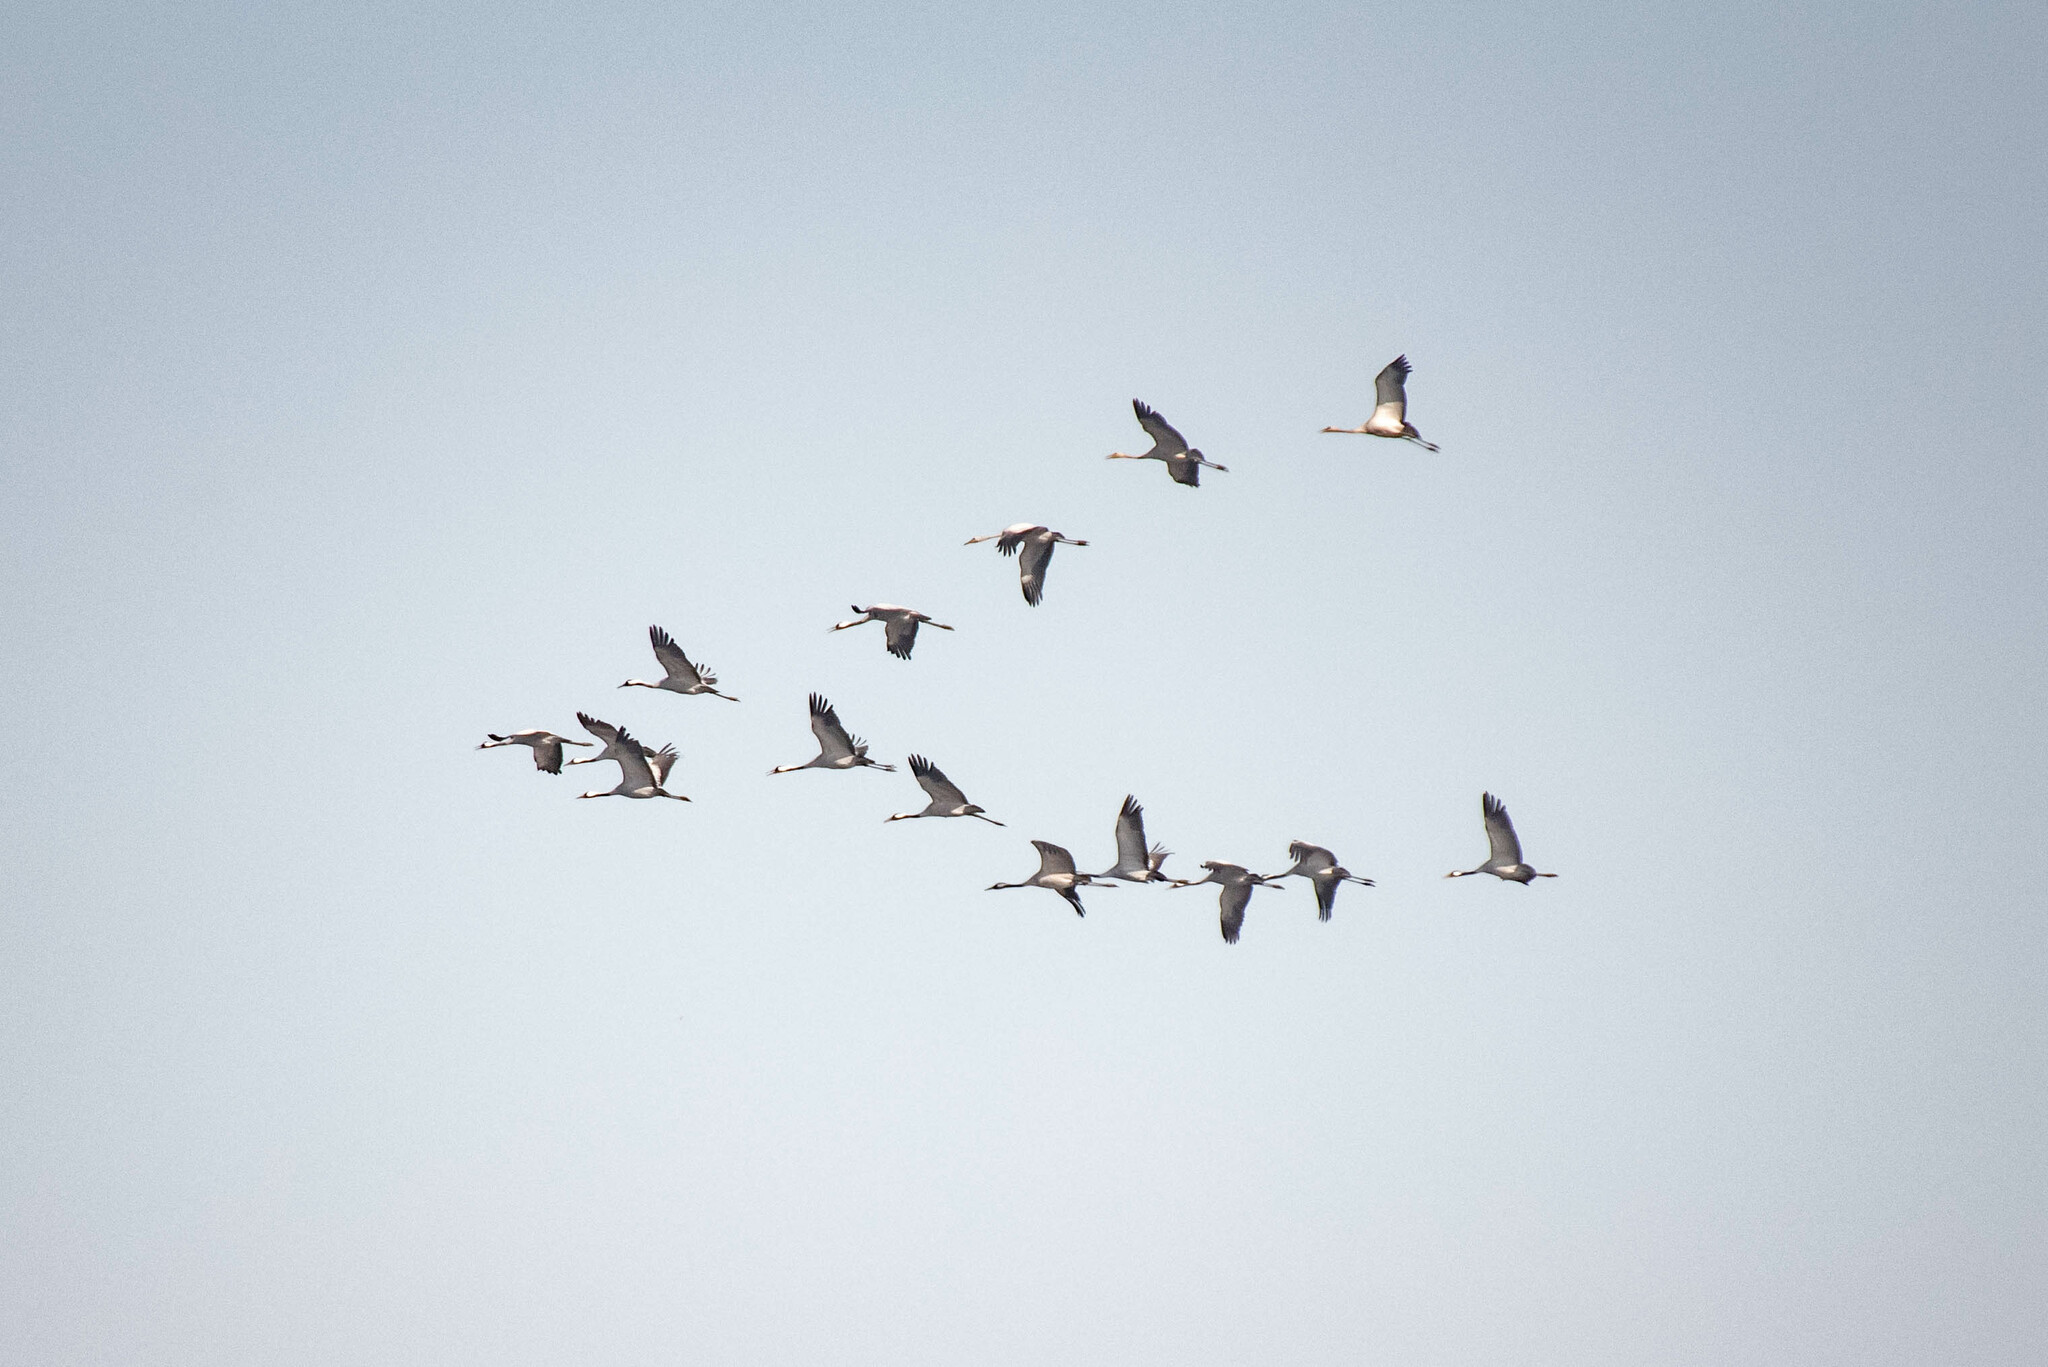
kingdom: Animalia
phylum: Chordata
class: Aves
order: Gruiformes
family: Gruidae
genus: Grus
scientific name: Grus grus
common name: Common crane
